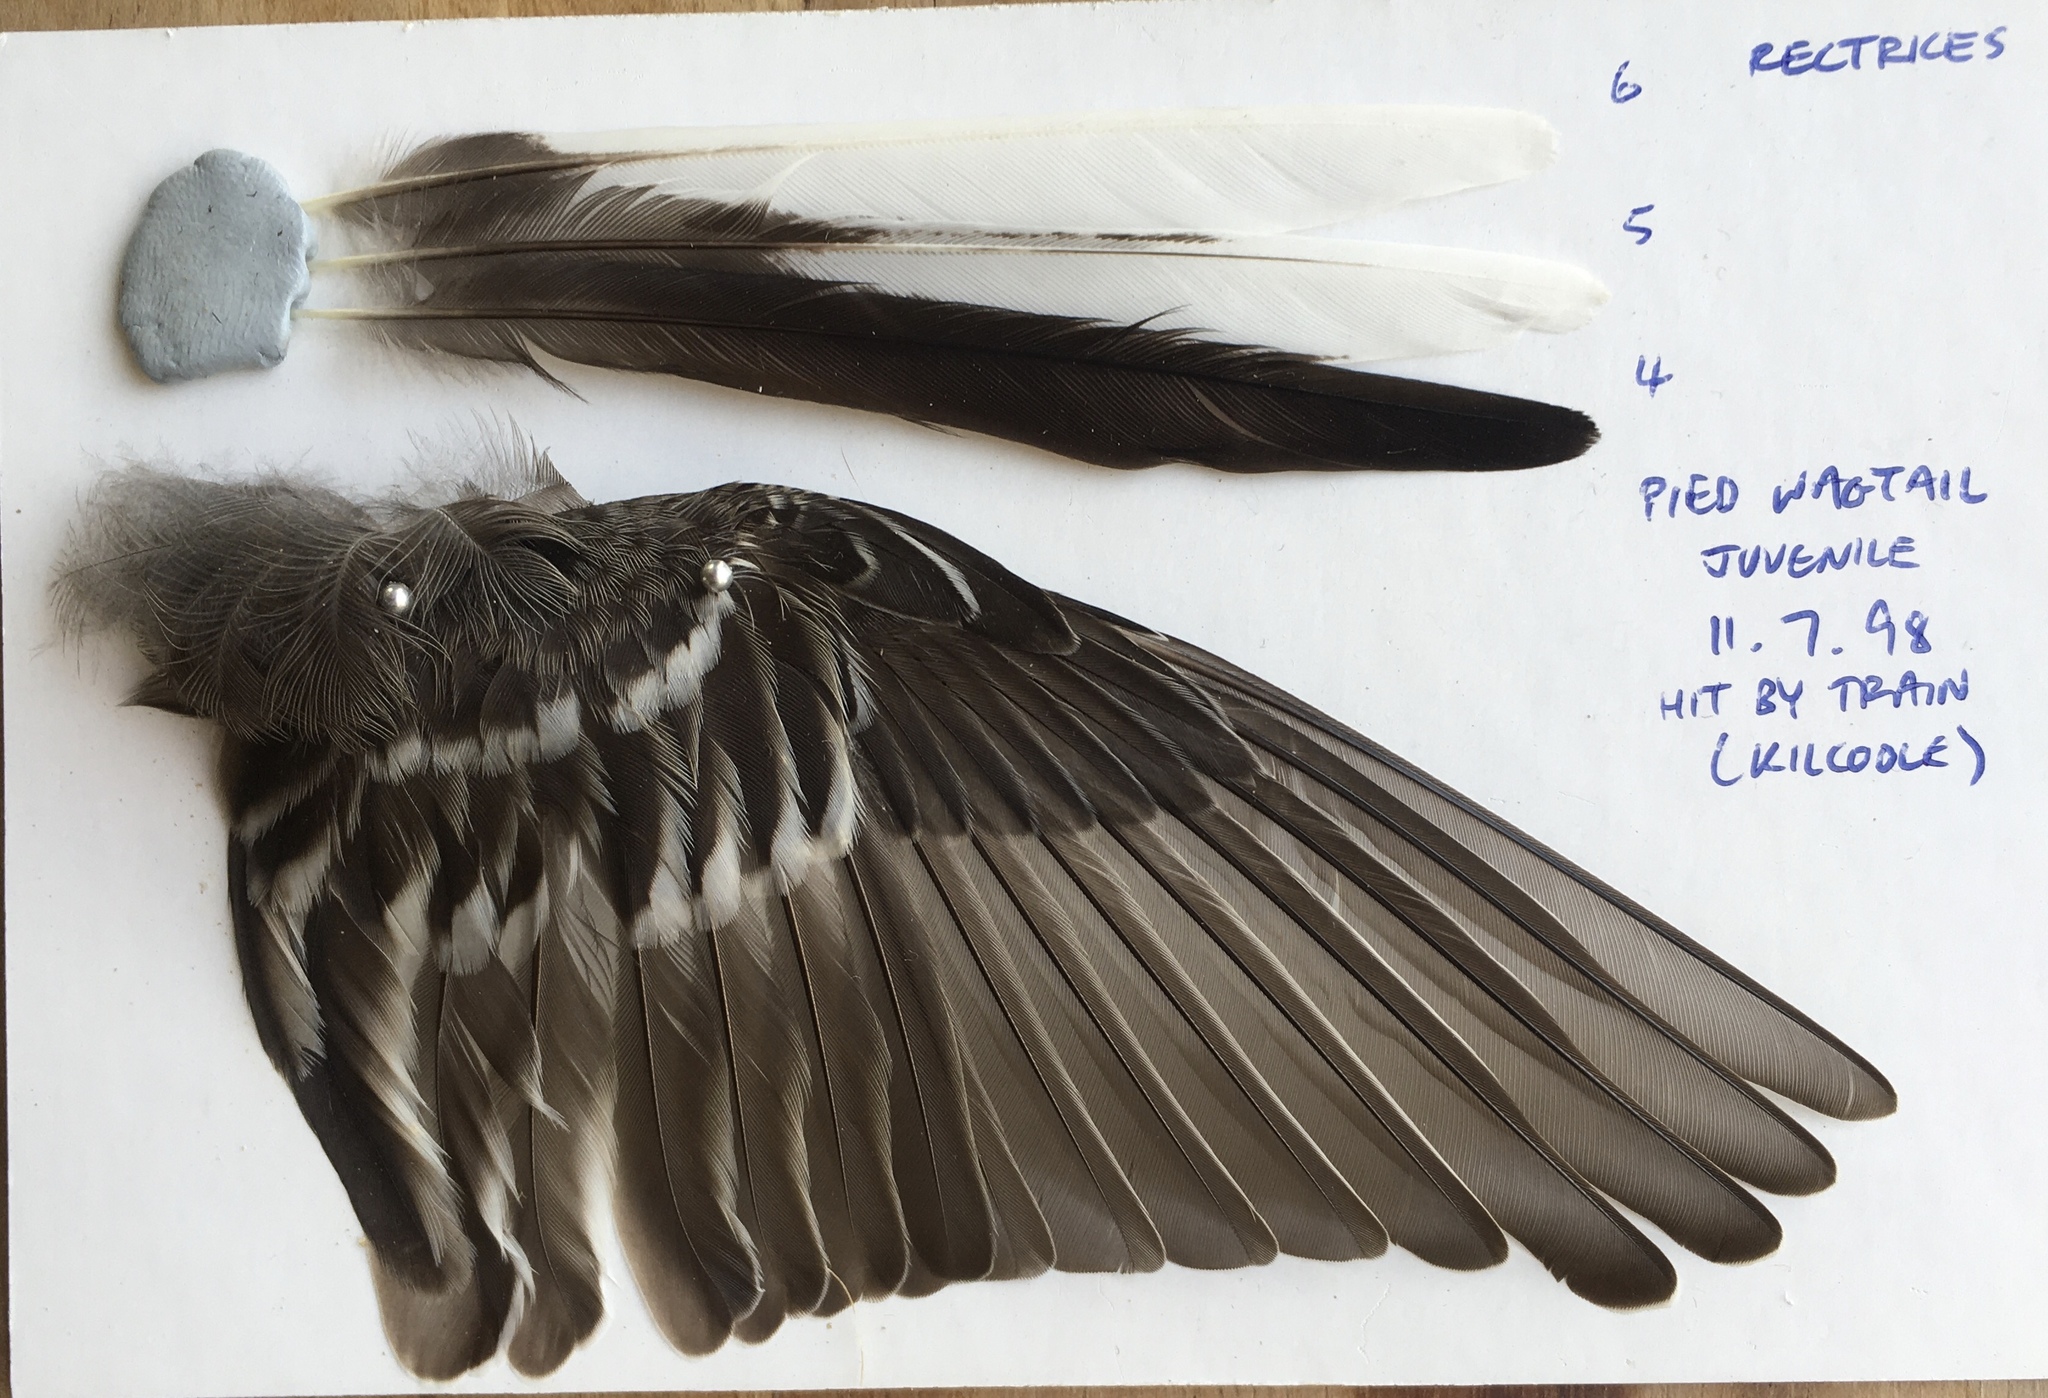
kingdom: Animalia
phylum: Chordata
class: Aves
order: Passeriformes
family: Motacillidae
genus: Motacilla
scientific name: Motacilla alba
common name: White wagtail
